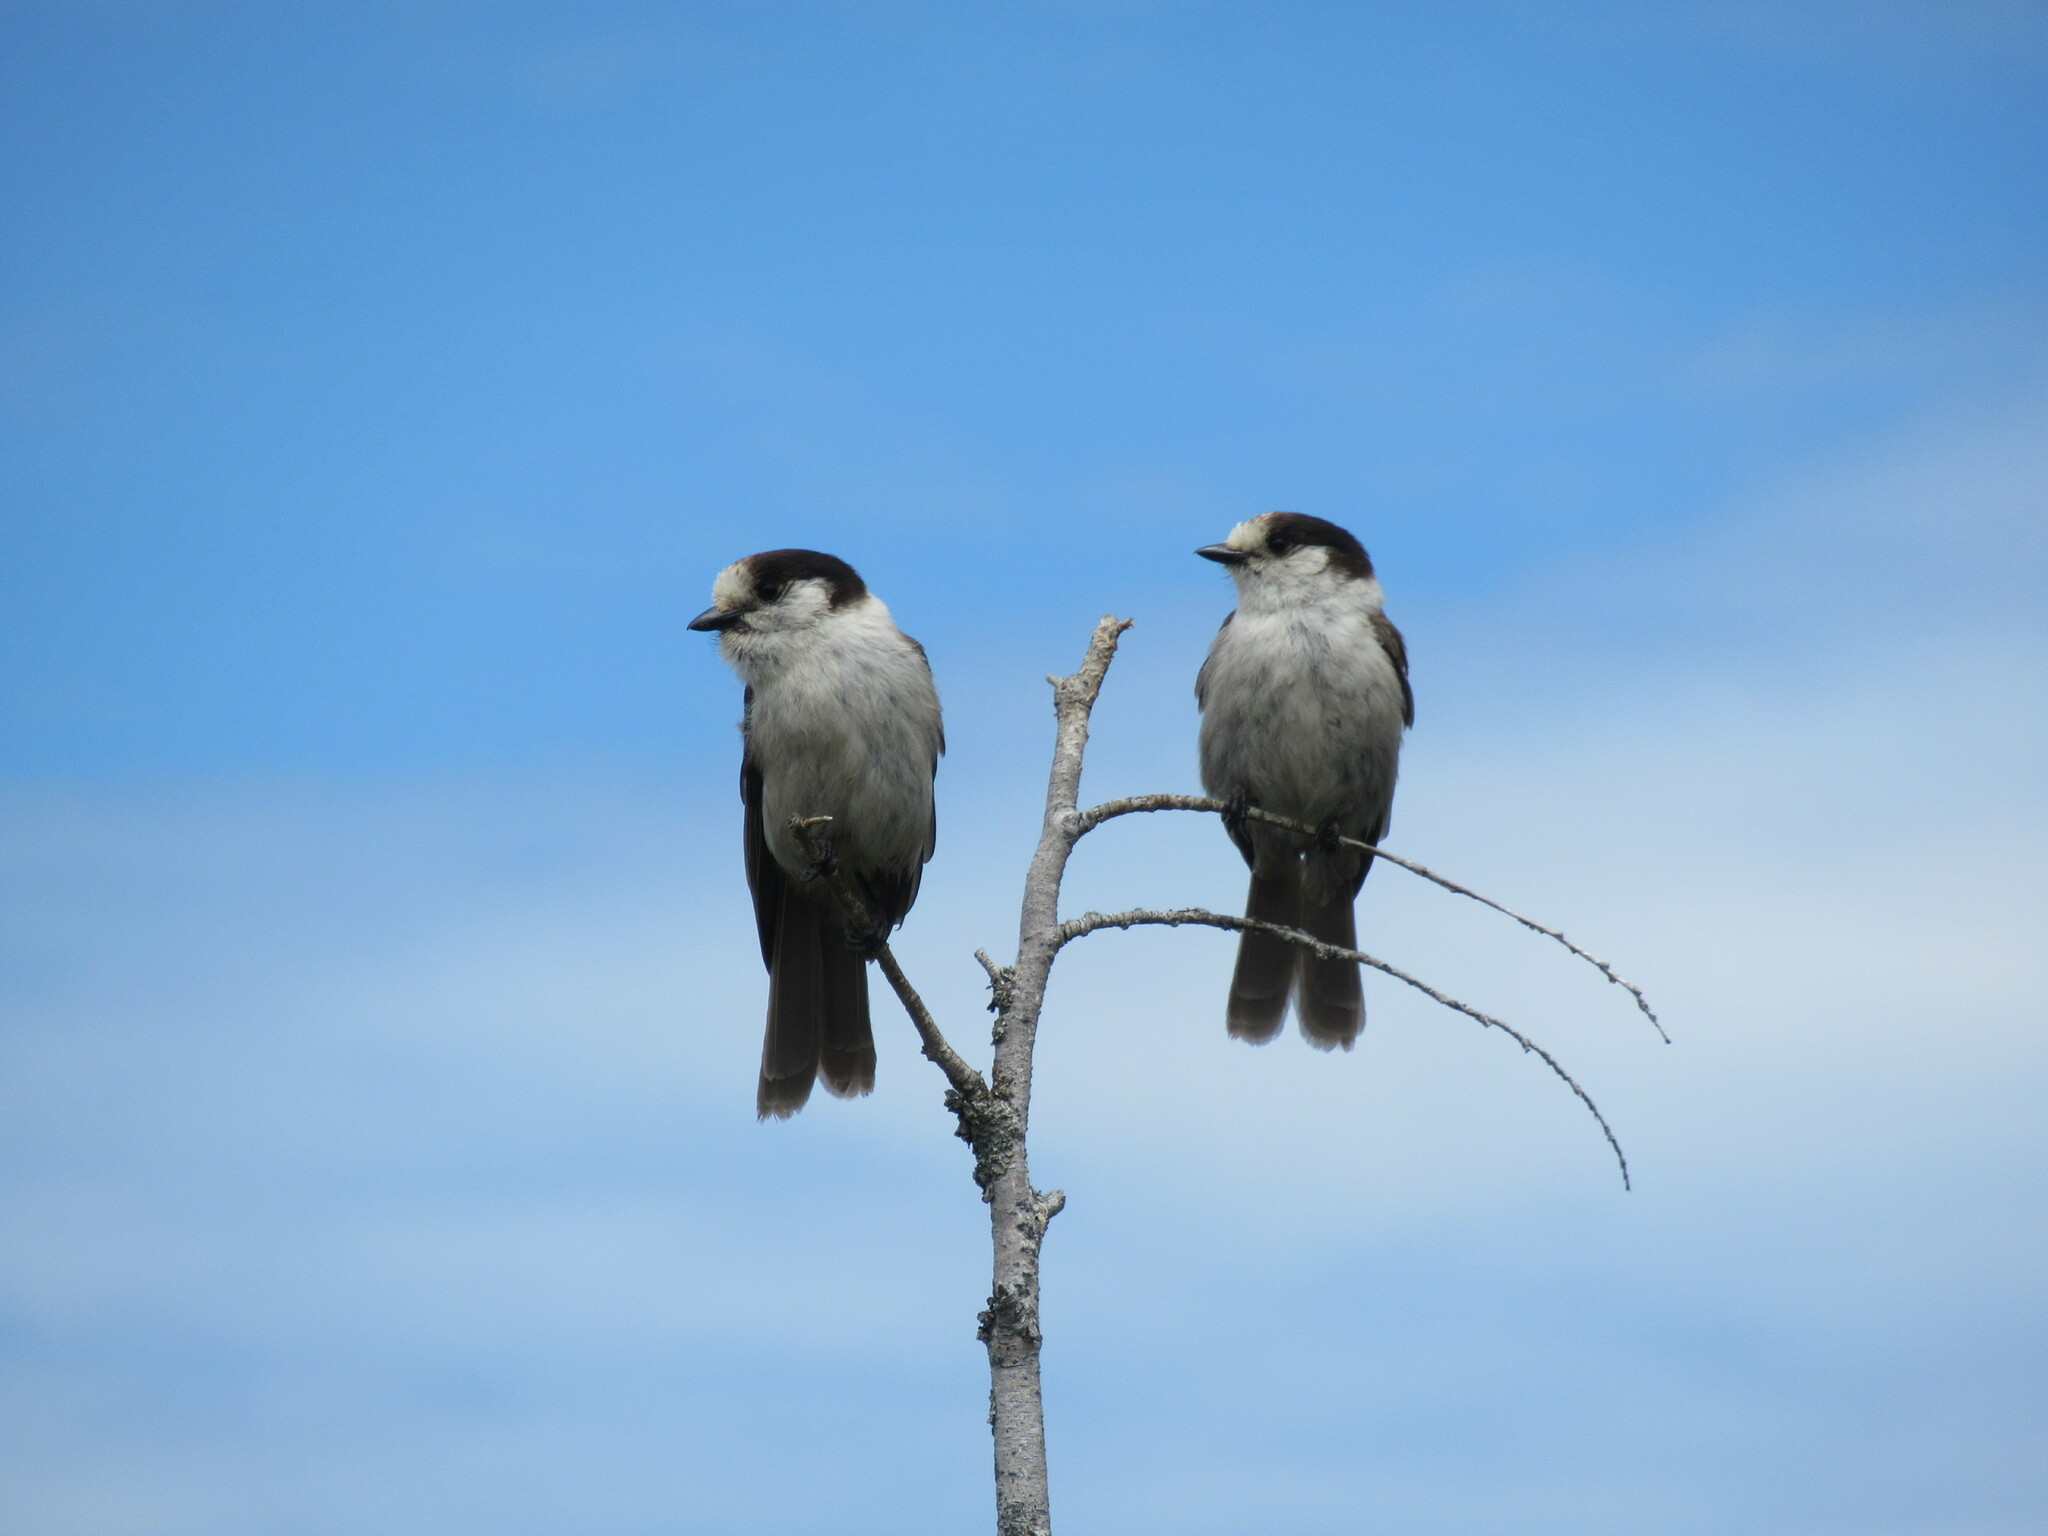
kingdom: Animalia
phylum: Chordata
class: Aves
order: Passeriformes
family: Corvidae
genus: Perisoreus
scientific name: Perisoreus canadensis
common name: Gray jay
